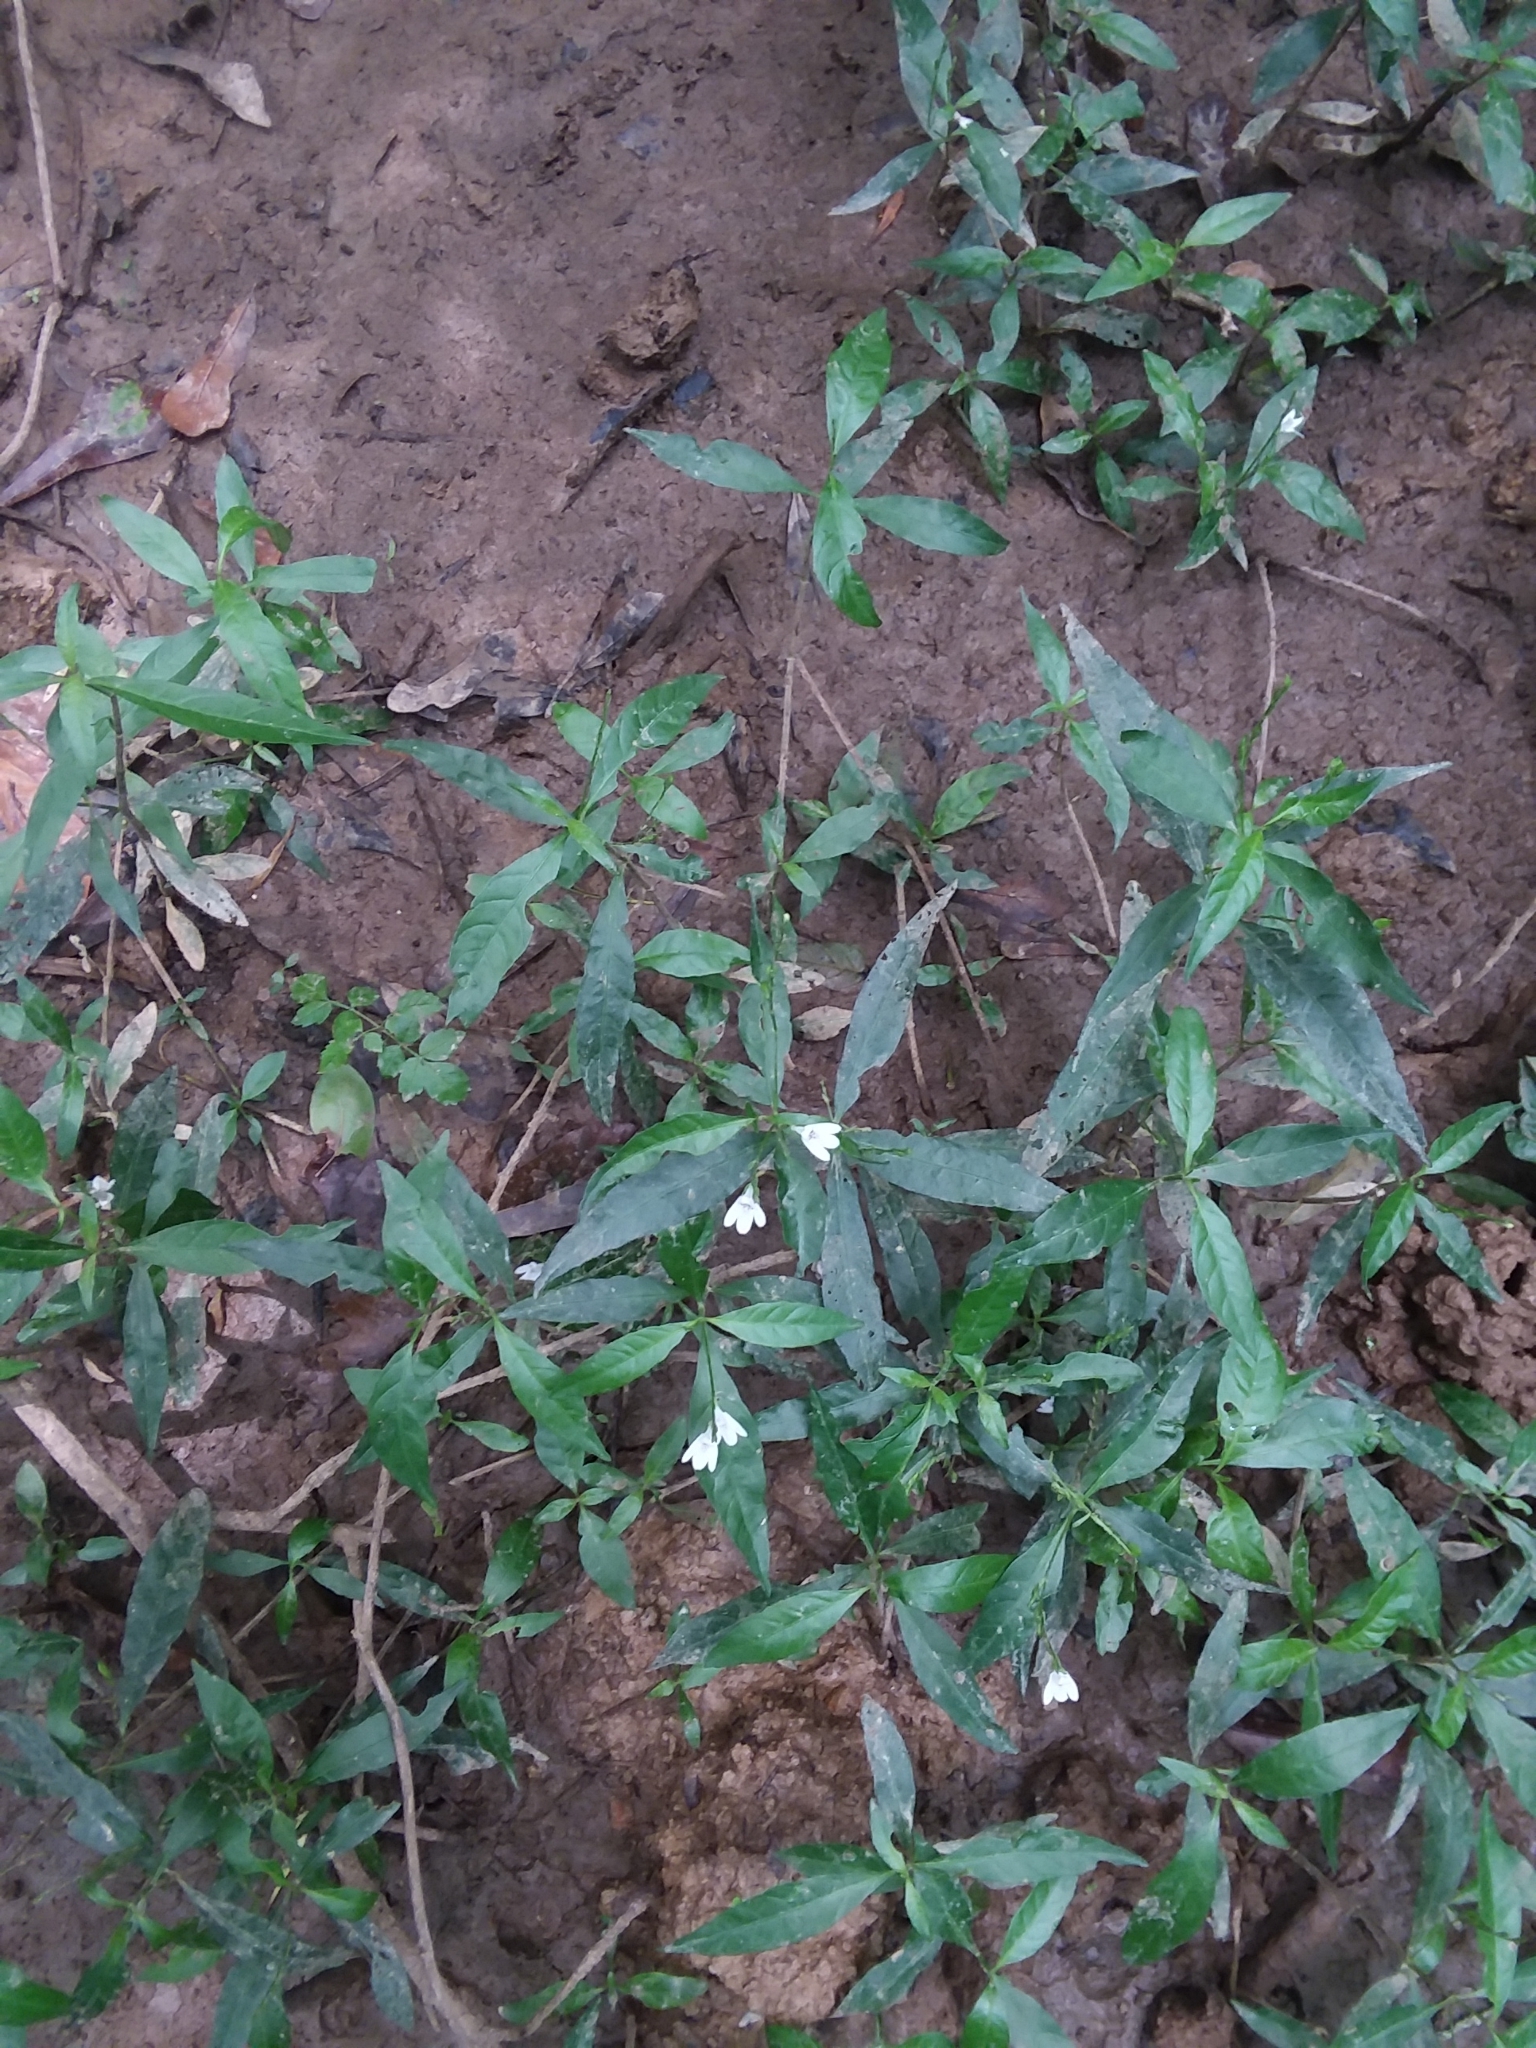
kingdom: Plantae
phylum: Tracheophyta
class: Magnoliopsida
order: Lamiales
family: Acanthaceae
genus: Justicia
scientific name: Justicia lanceolata
